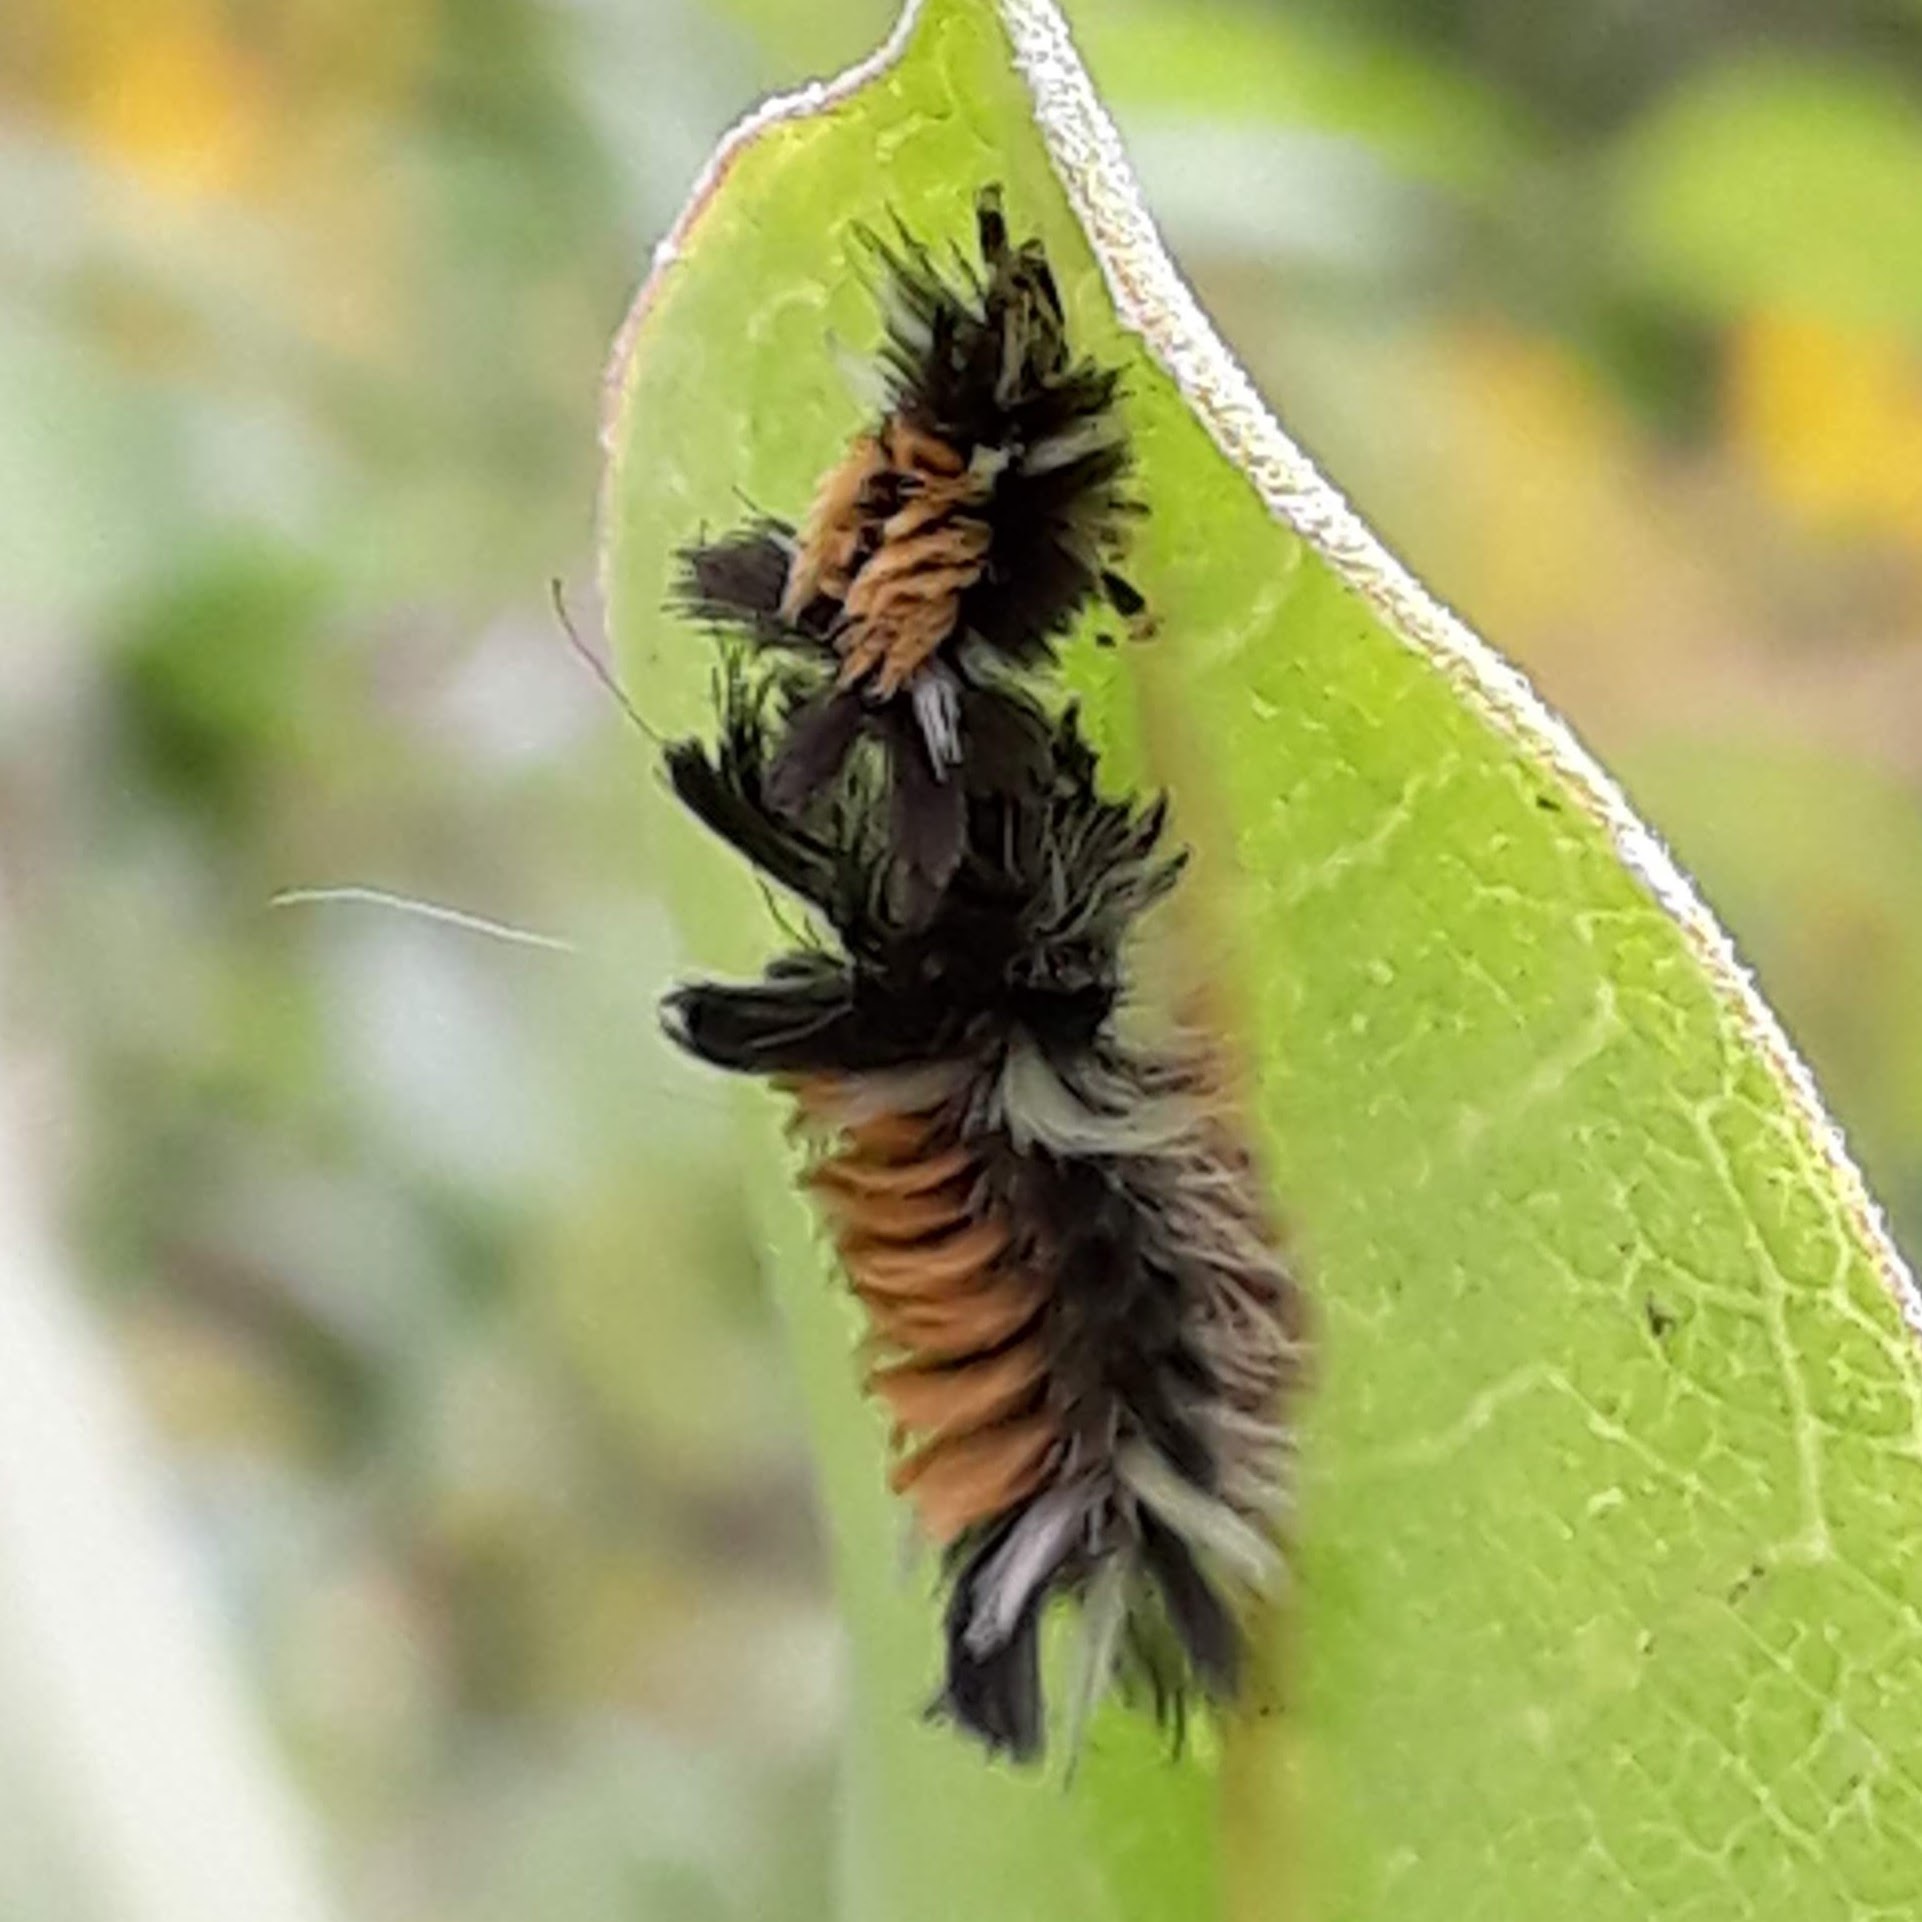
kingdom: Animalia
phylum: Arthropoda
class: Insecta
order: Lepidoptera
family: Erebidae
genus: Euchaetes
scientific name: Euchaetes egle
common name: Milkweed tussock moth
